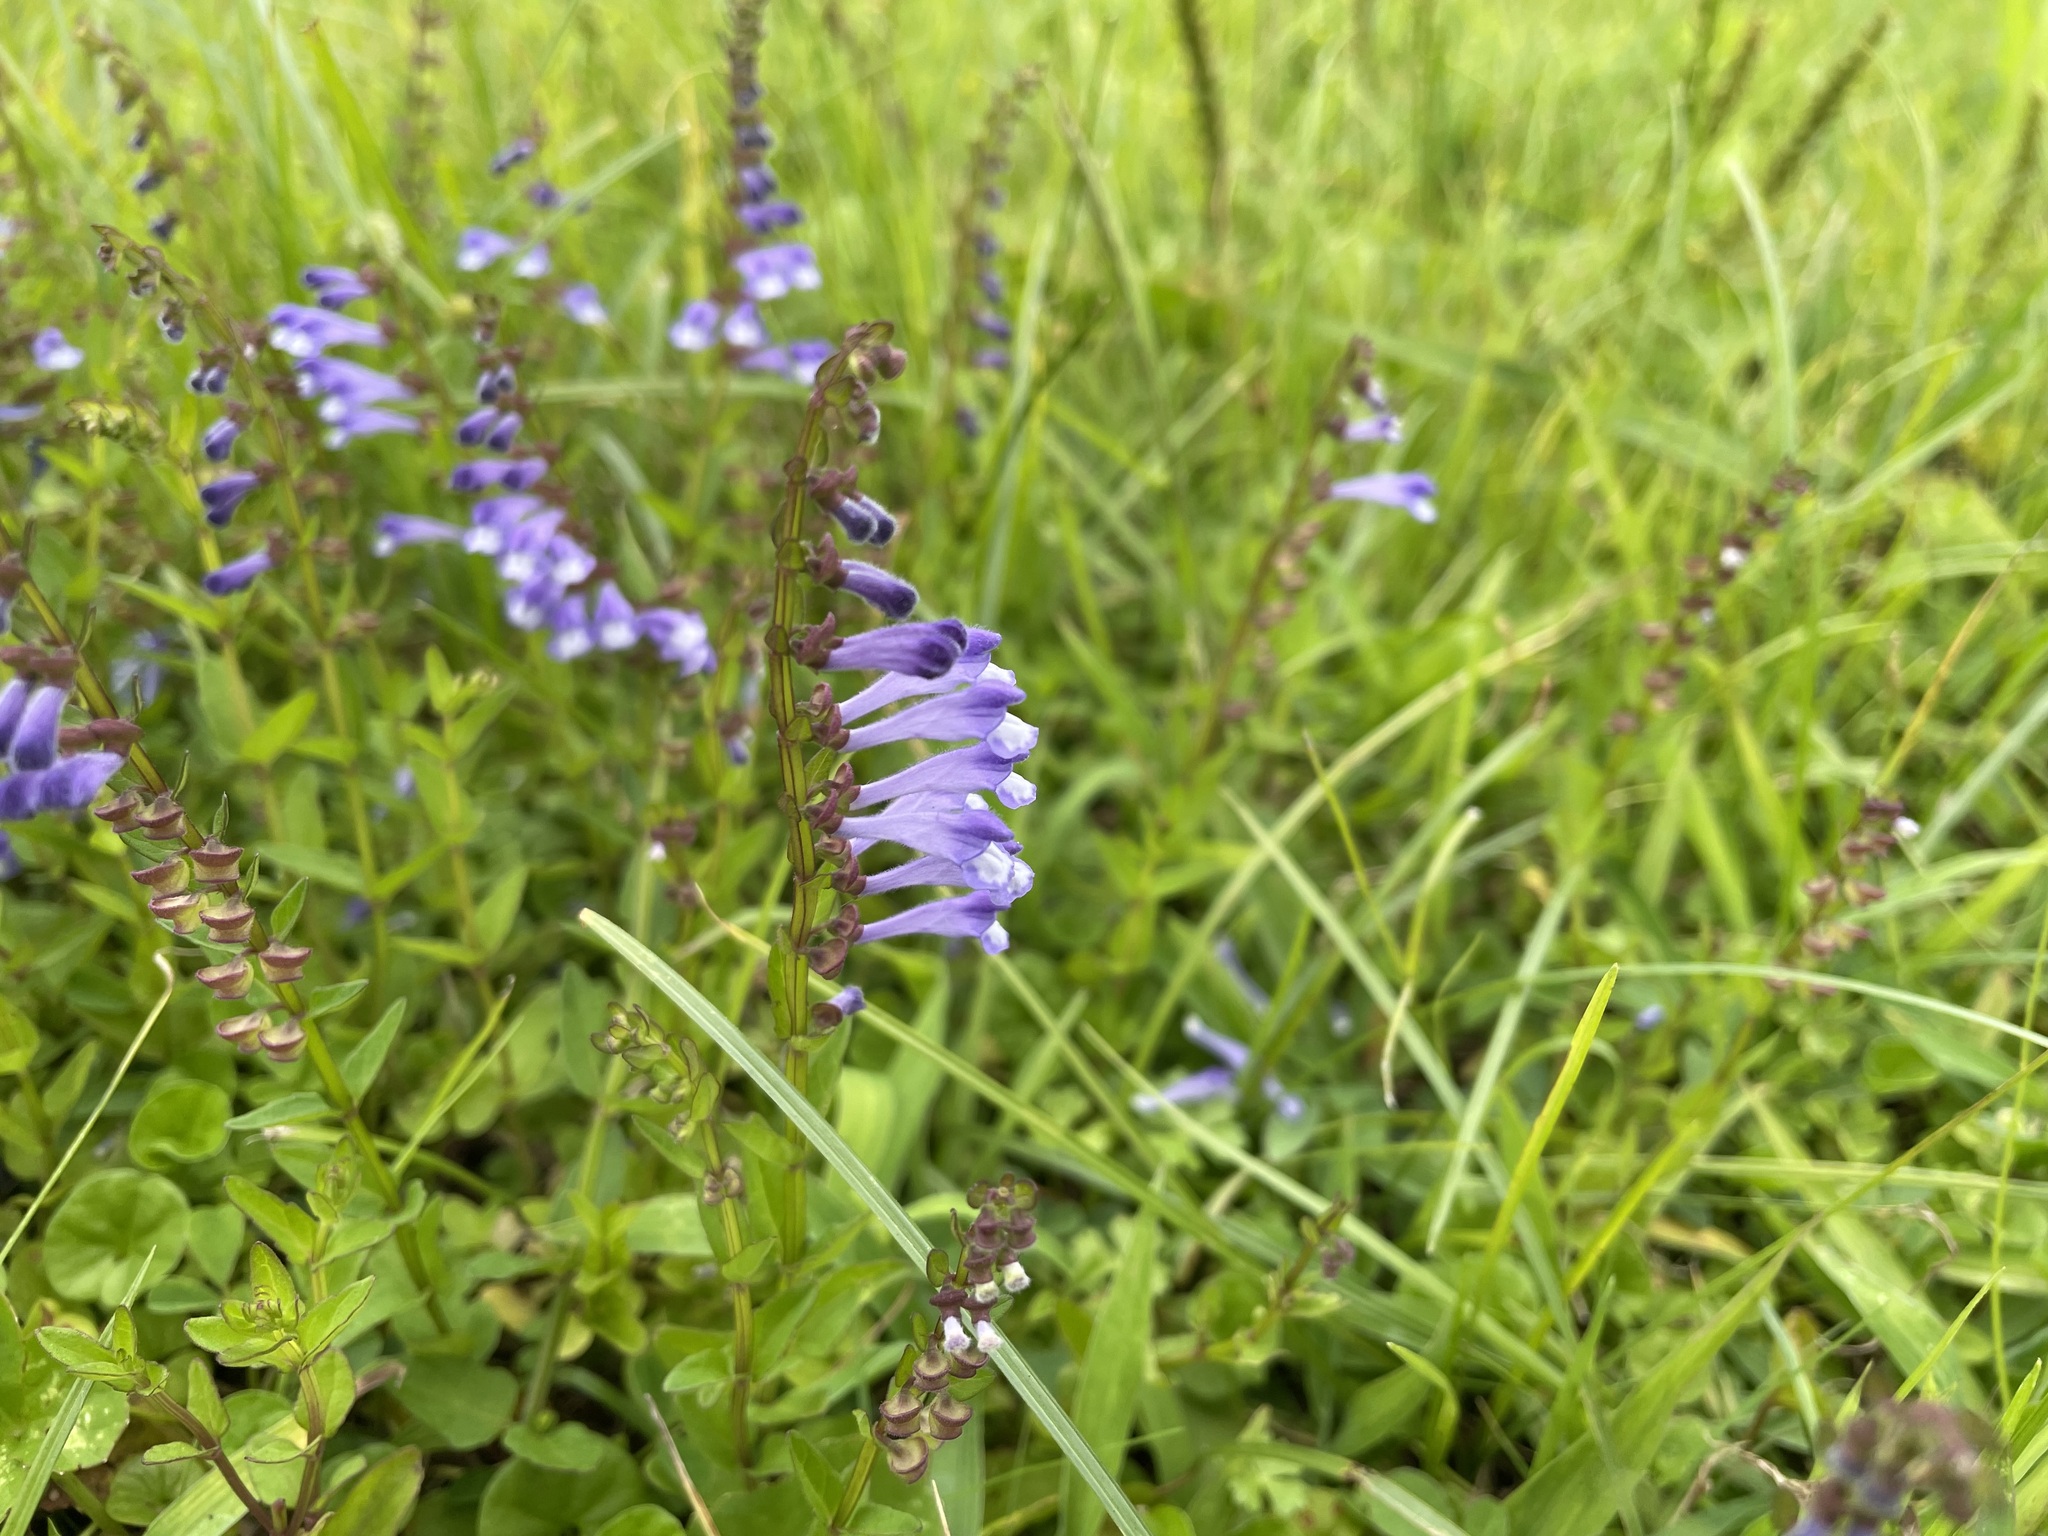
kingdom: Plantae
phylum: Tracheophyta
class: Magnoliopsida
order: Lamiales
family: Lamiaceae
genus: Scutellaria
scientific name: Scutellaria barbata
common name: Barbed skullcap
